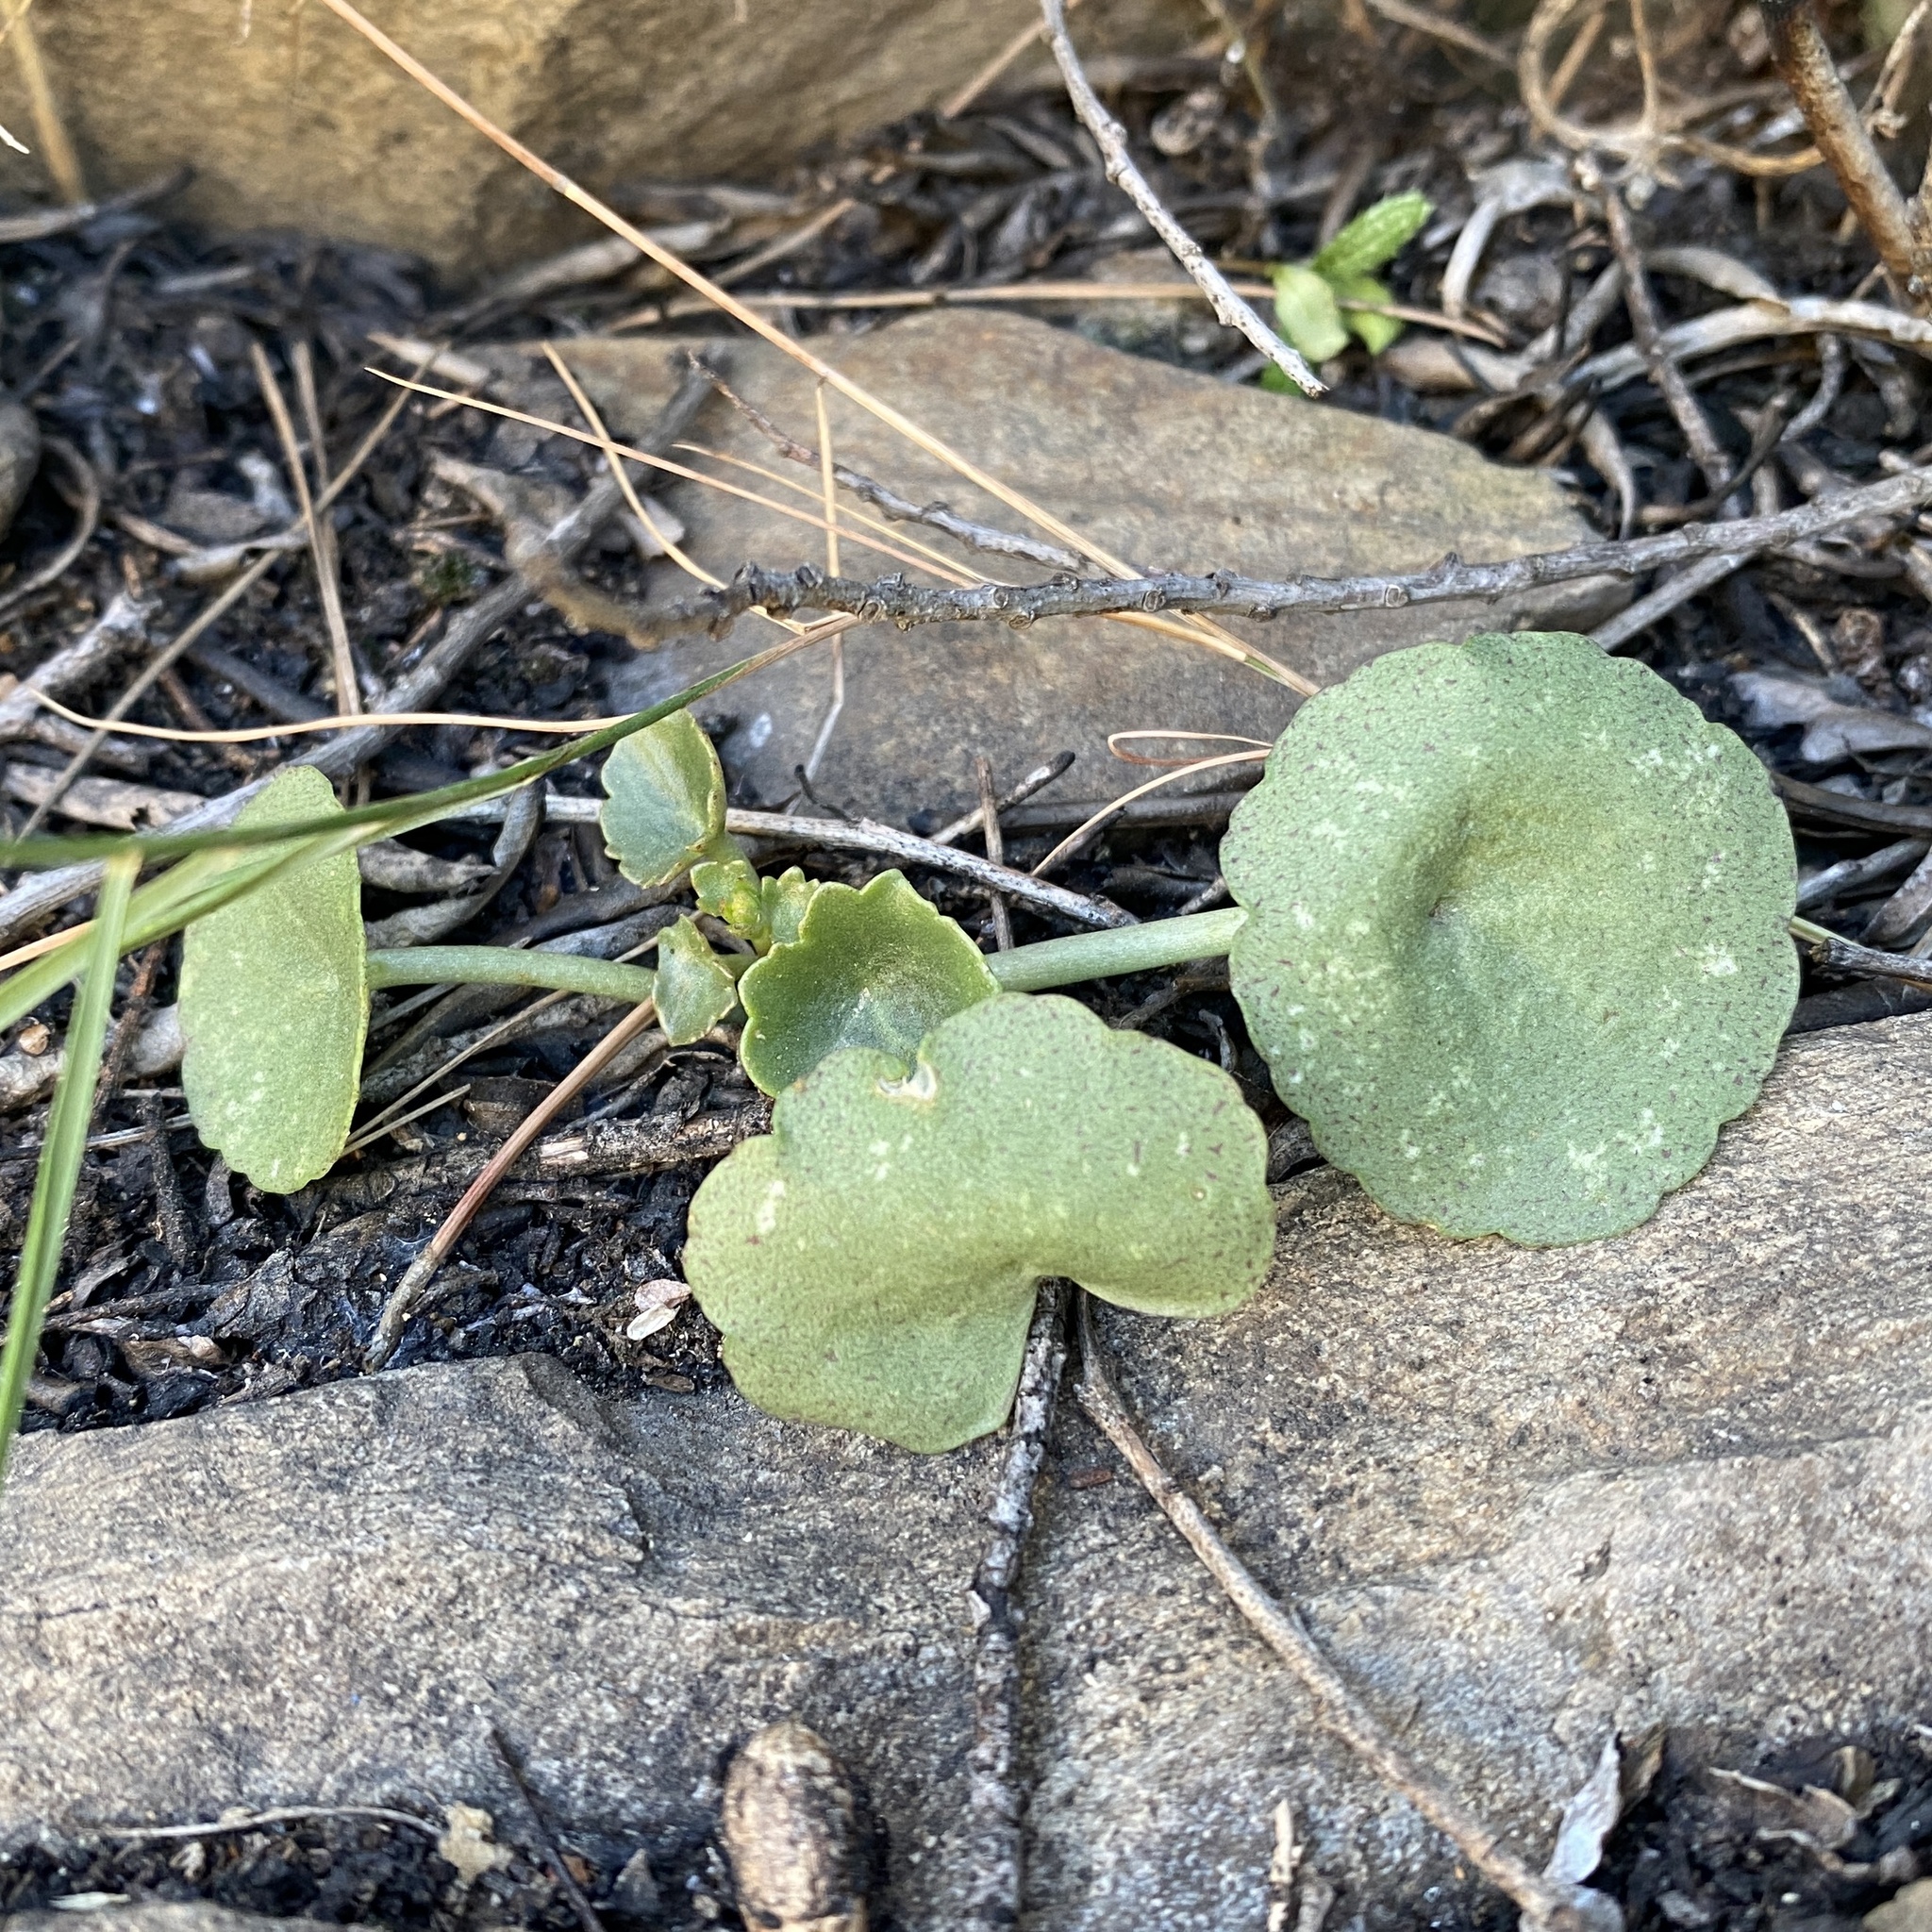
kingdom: Plantae
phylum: Tracheophyta
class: Magnoliopsida
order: Saxifragales
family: Crassulaceae
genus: Umbilicus
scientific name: Umbilicus rupestris
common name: Navelwort
